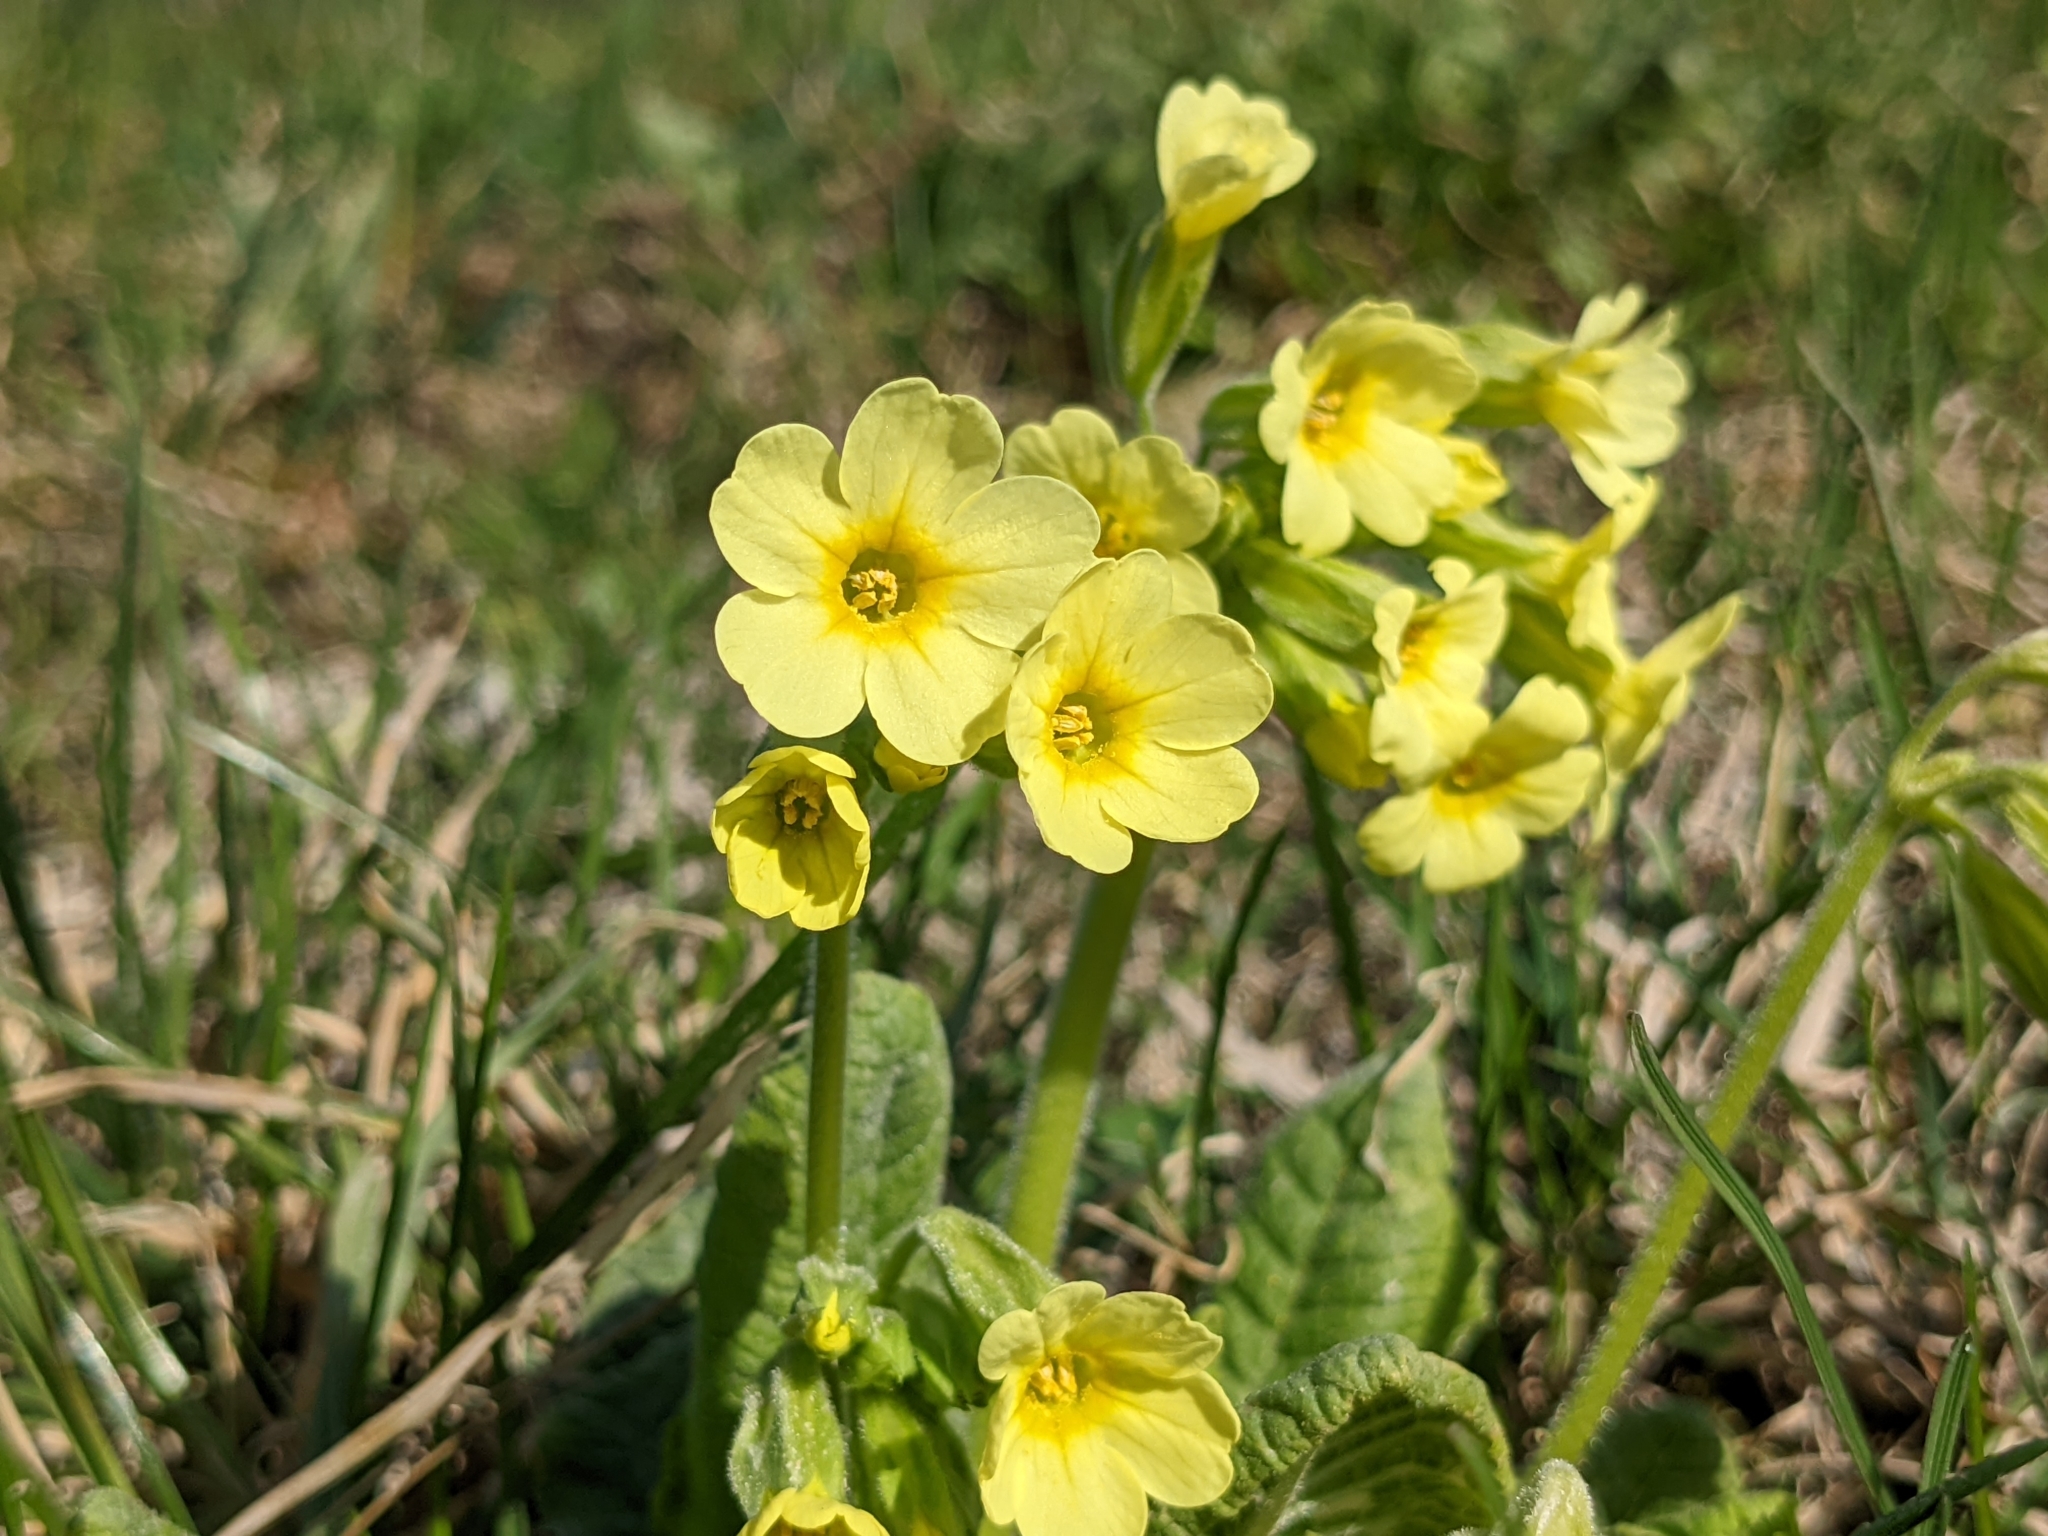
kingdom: Plantae
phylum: Tracheophyta
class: Magnoliopsida
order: Ericales
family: Primulaceae
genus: Primula
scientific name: Primula elatior
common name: Oxlip
